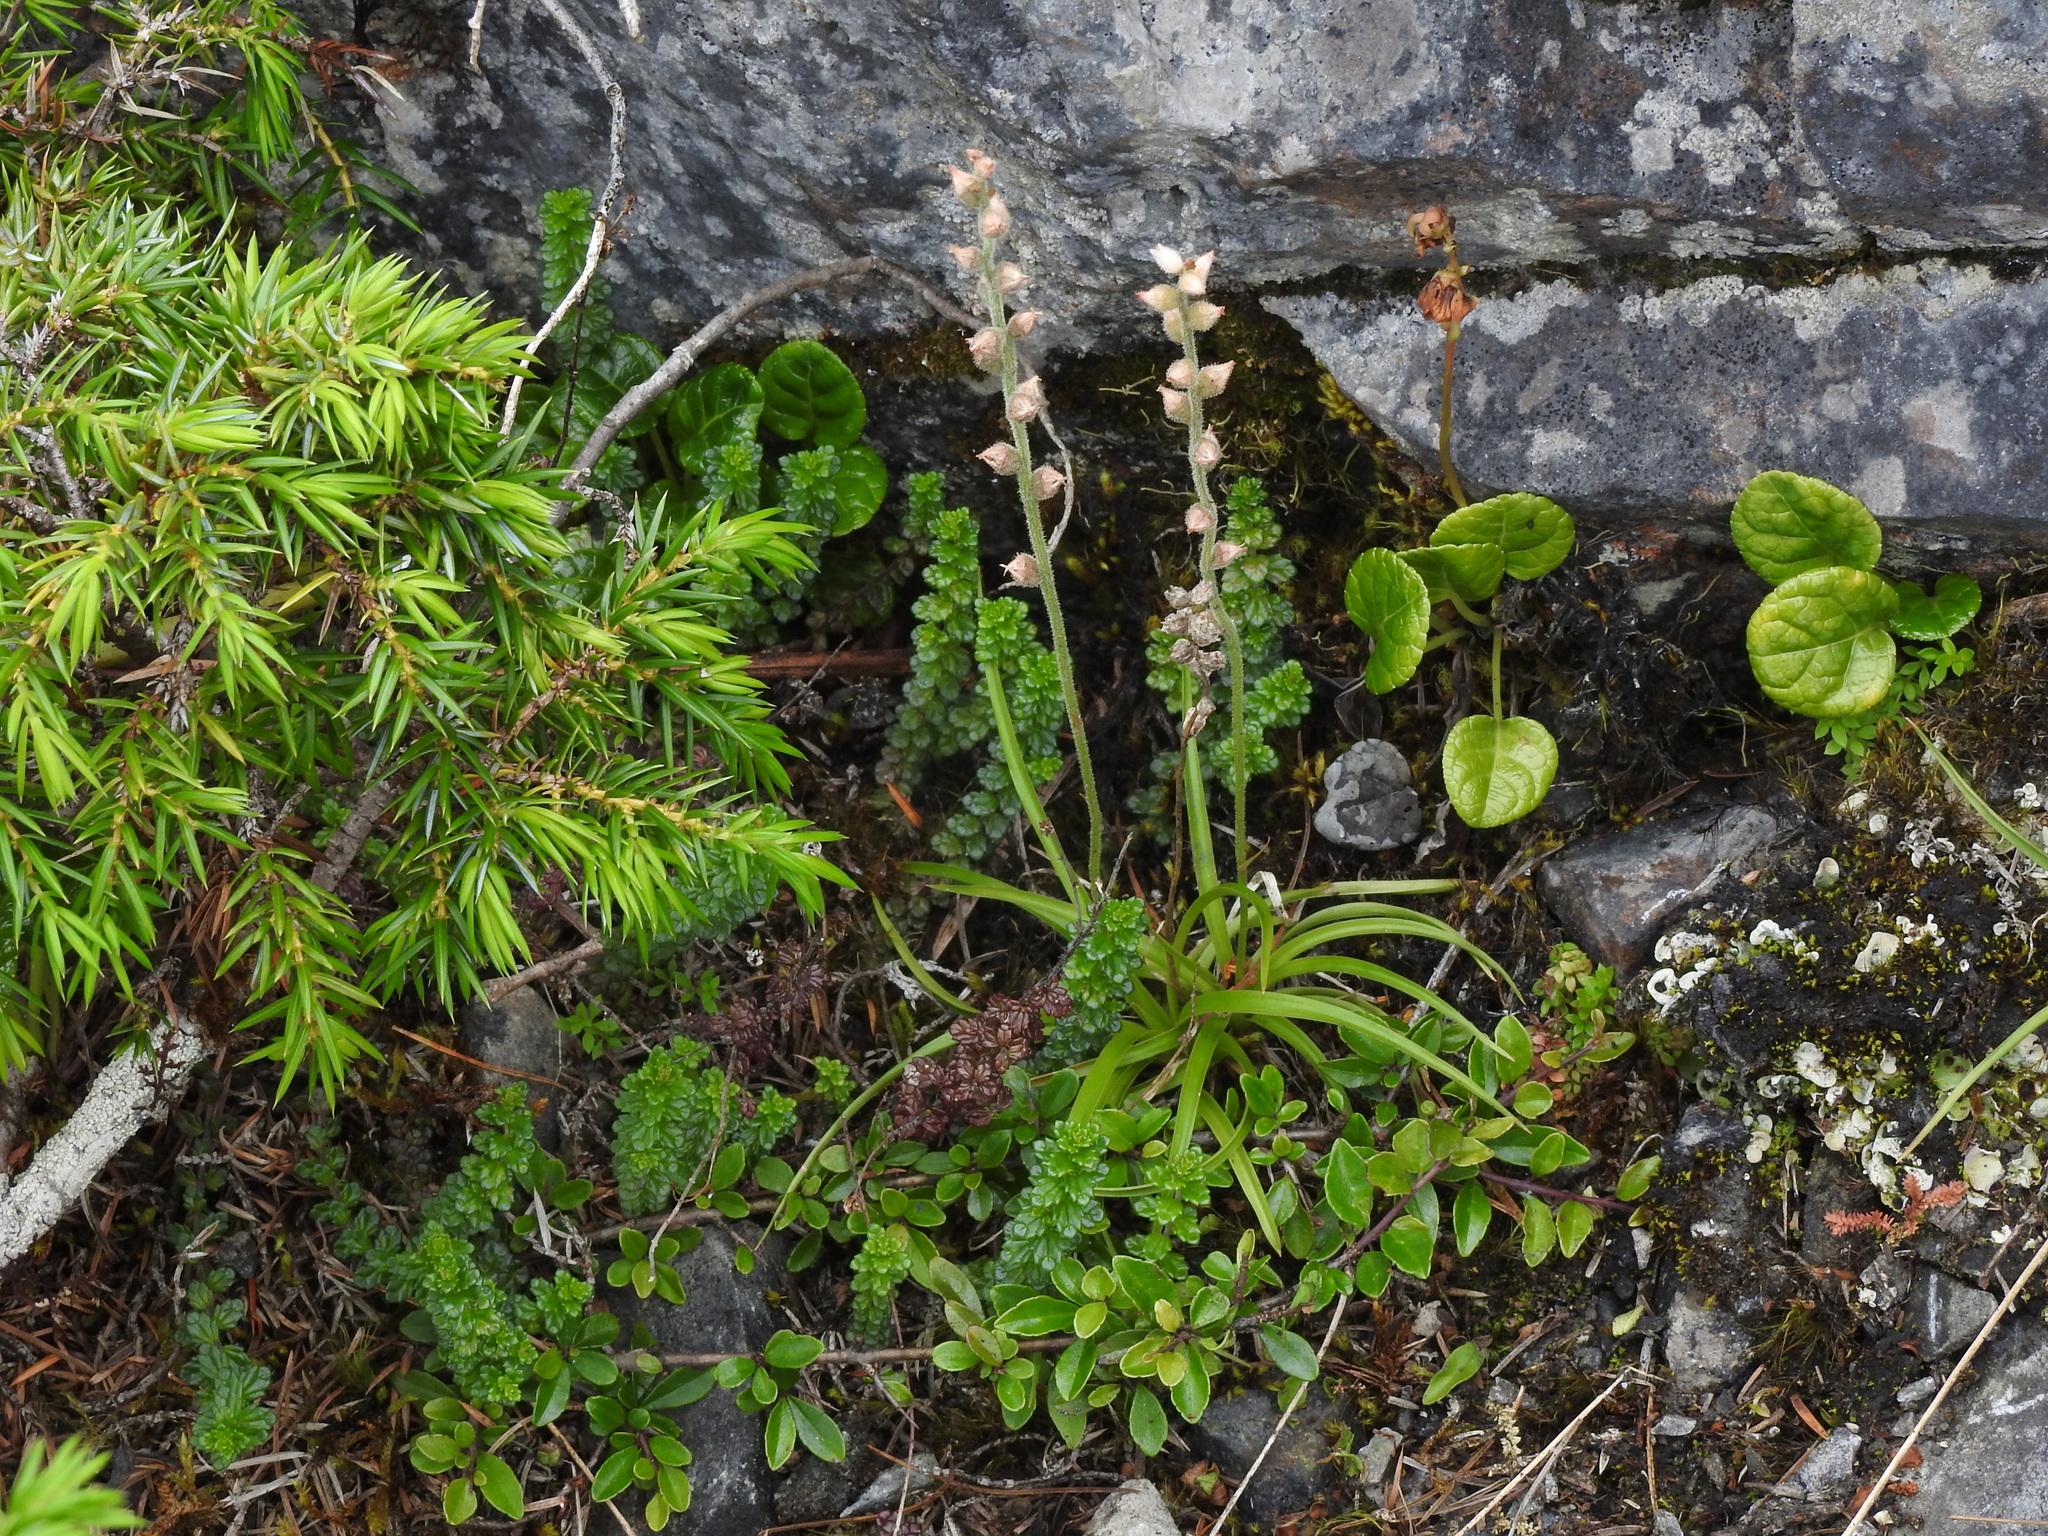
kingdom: Plantae
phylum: Tracheophyta
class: Liliopsida
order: Dioscoreales
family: Nartheciaceae
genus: Aletris
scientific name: Aletris spicata
